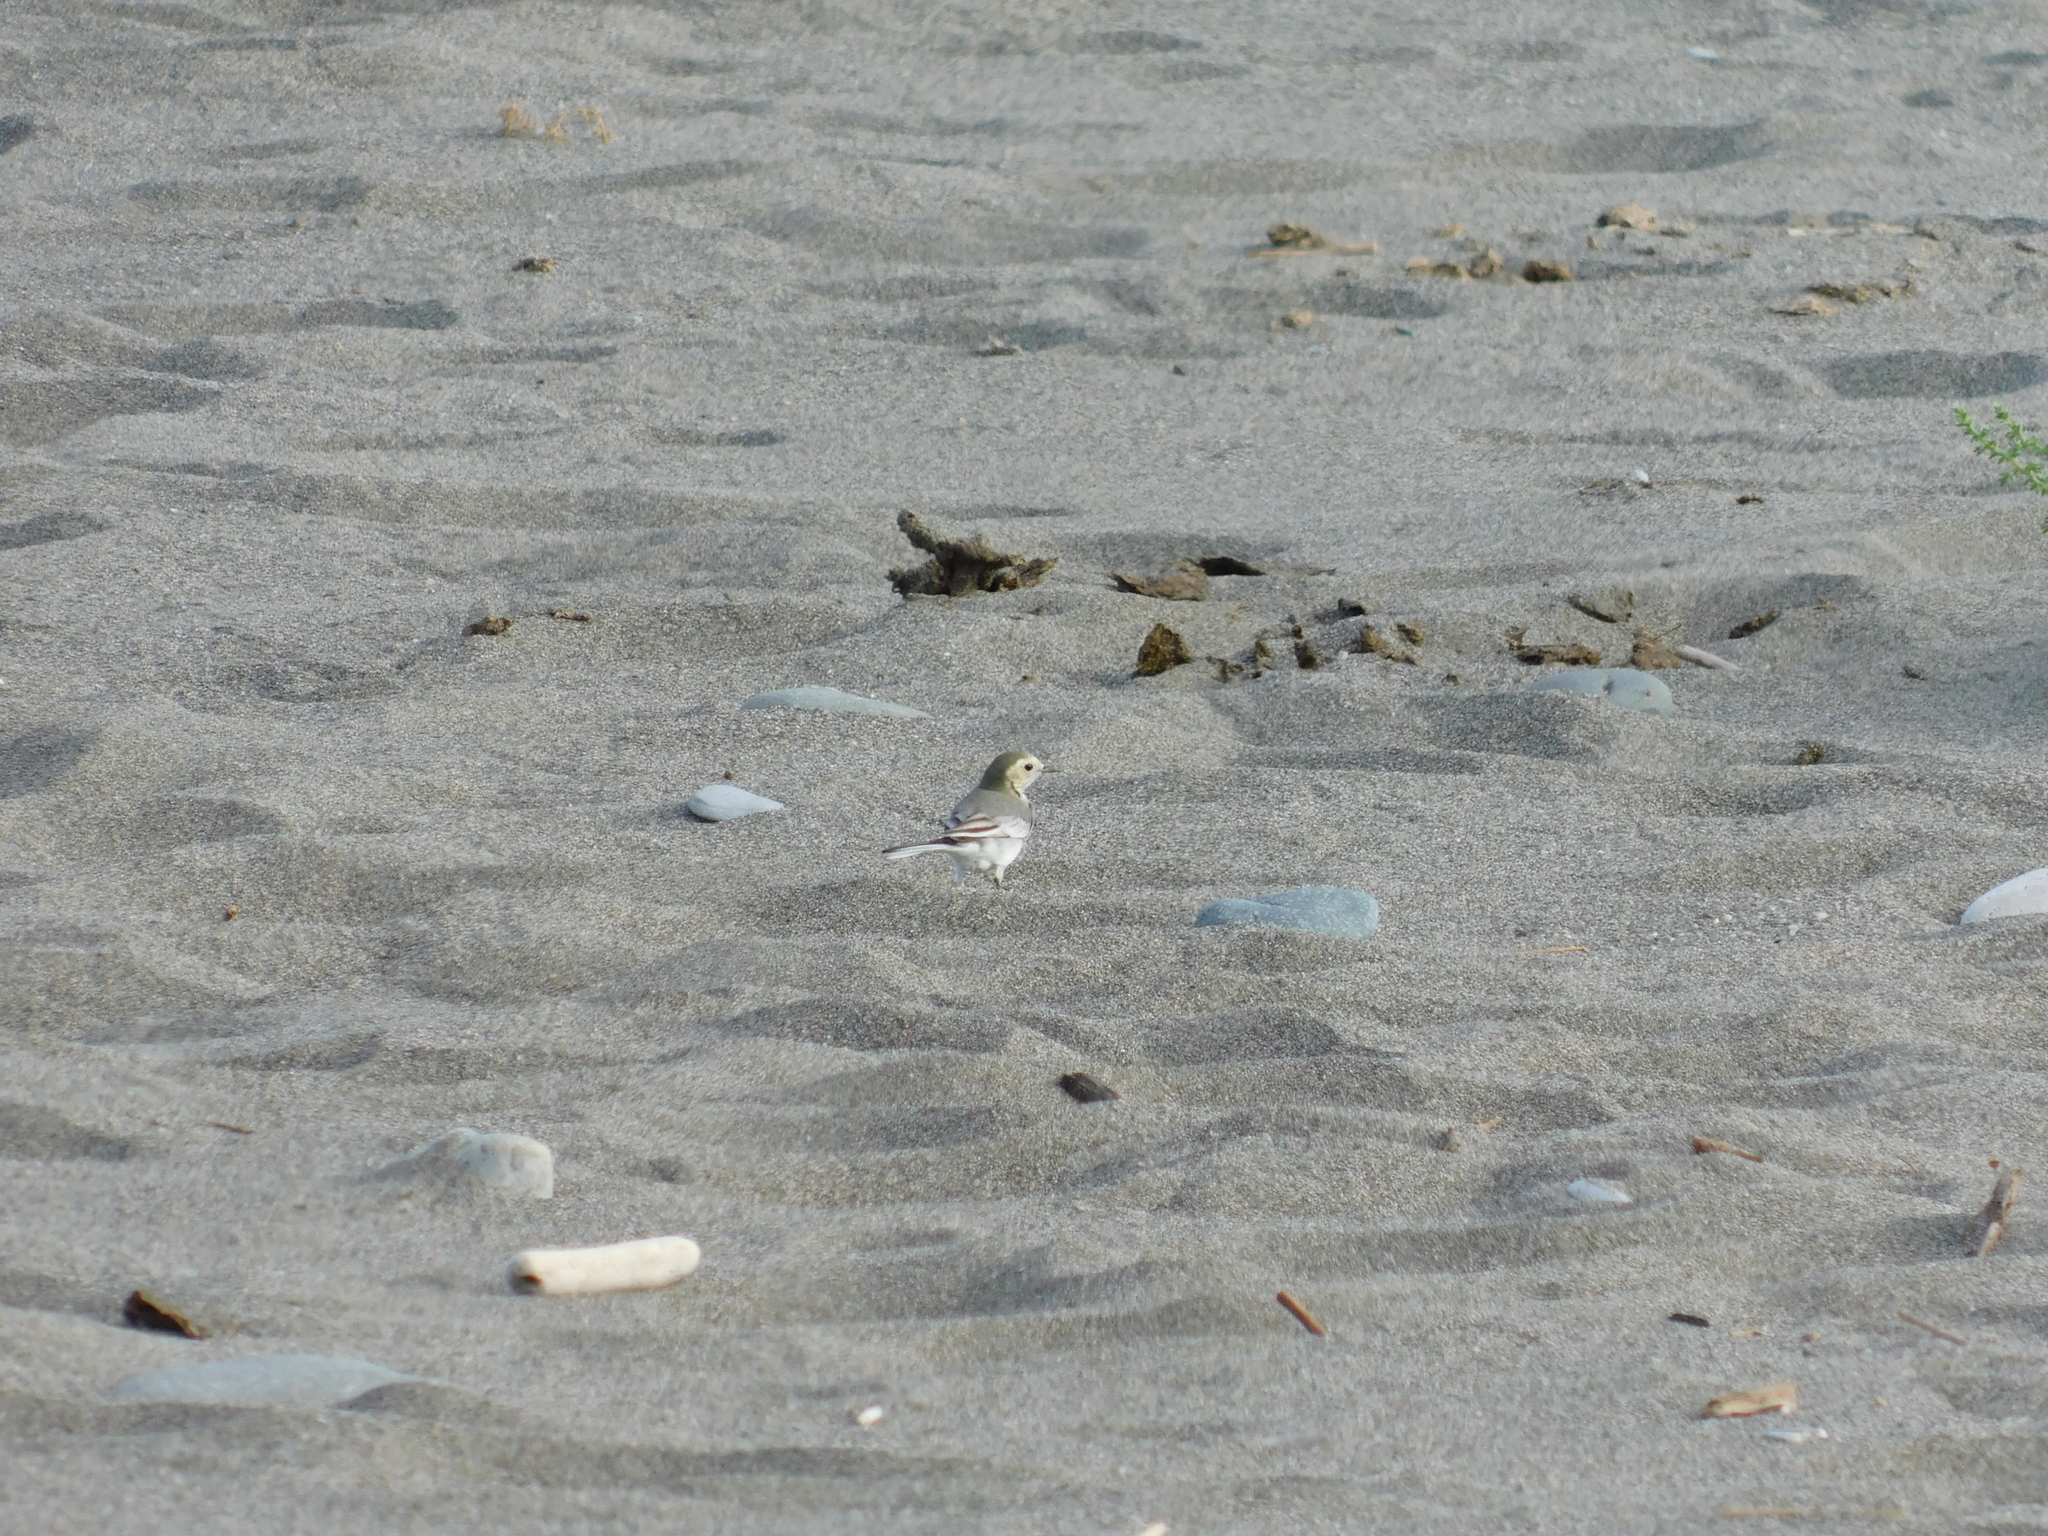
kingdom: Animalia
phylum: Chordata
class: Aves
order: Passeriformes
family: Motacillidae
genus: Motacilla
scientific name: Motacilla alba
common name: White wagtail
